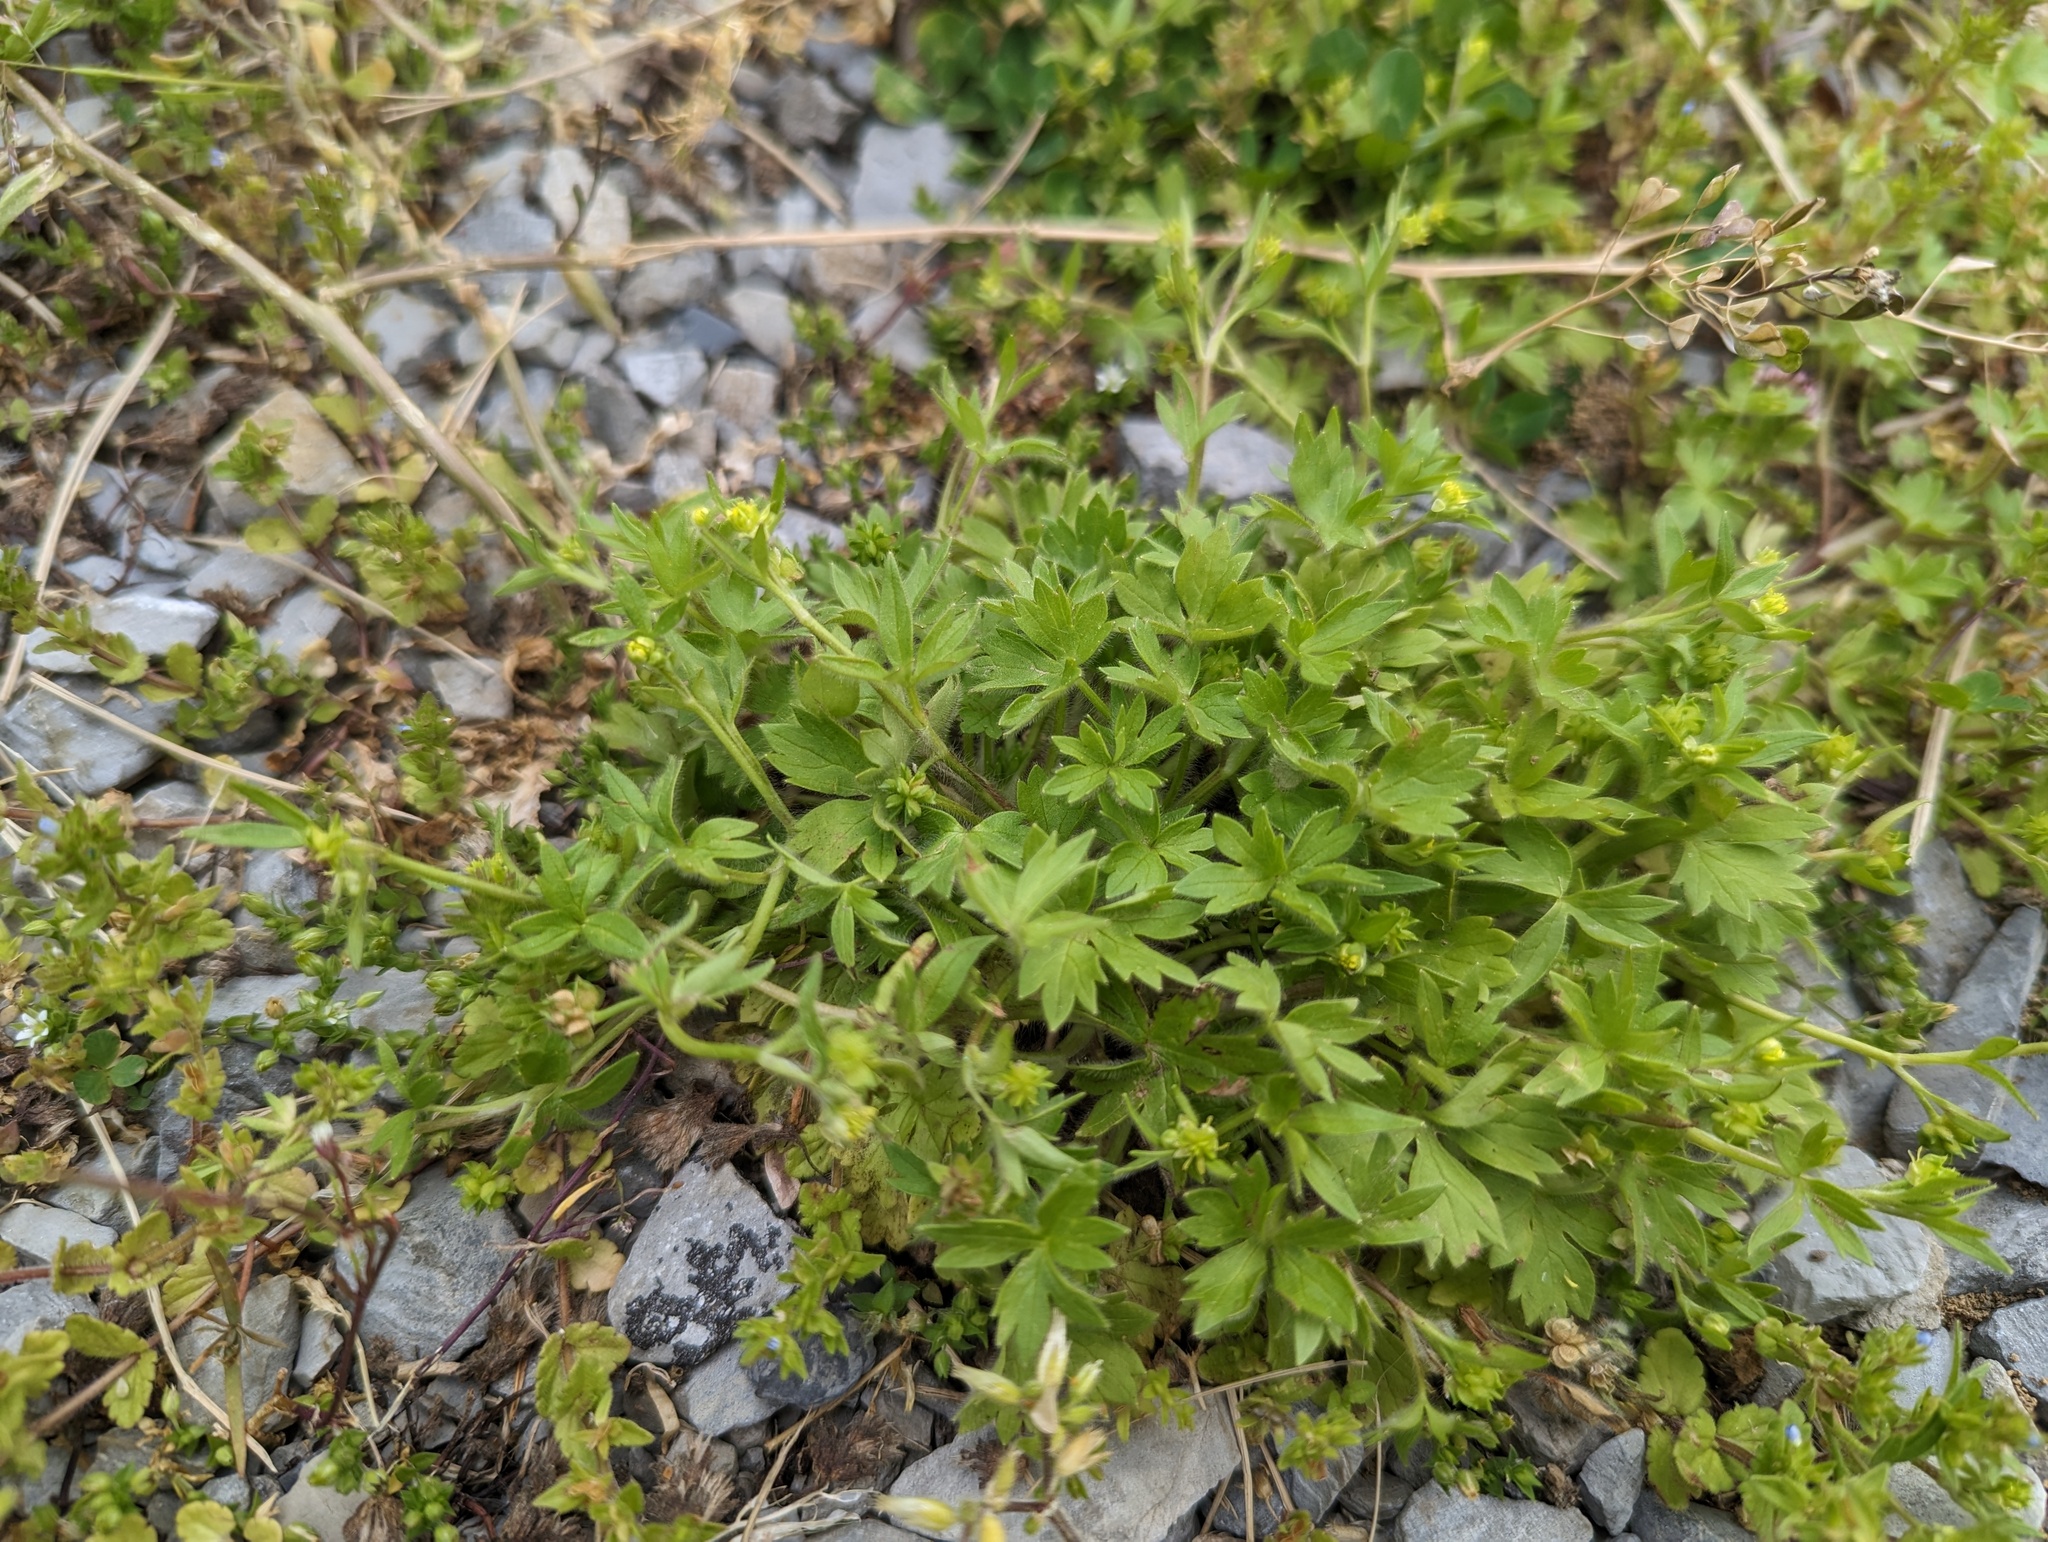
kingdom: Plantae
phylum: Tracheophyta
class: Magnoliopsida
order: Ranunculales
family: Ranunculaceae
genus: Ranunculus
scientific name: Ranunculus parviflorus
